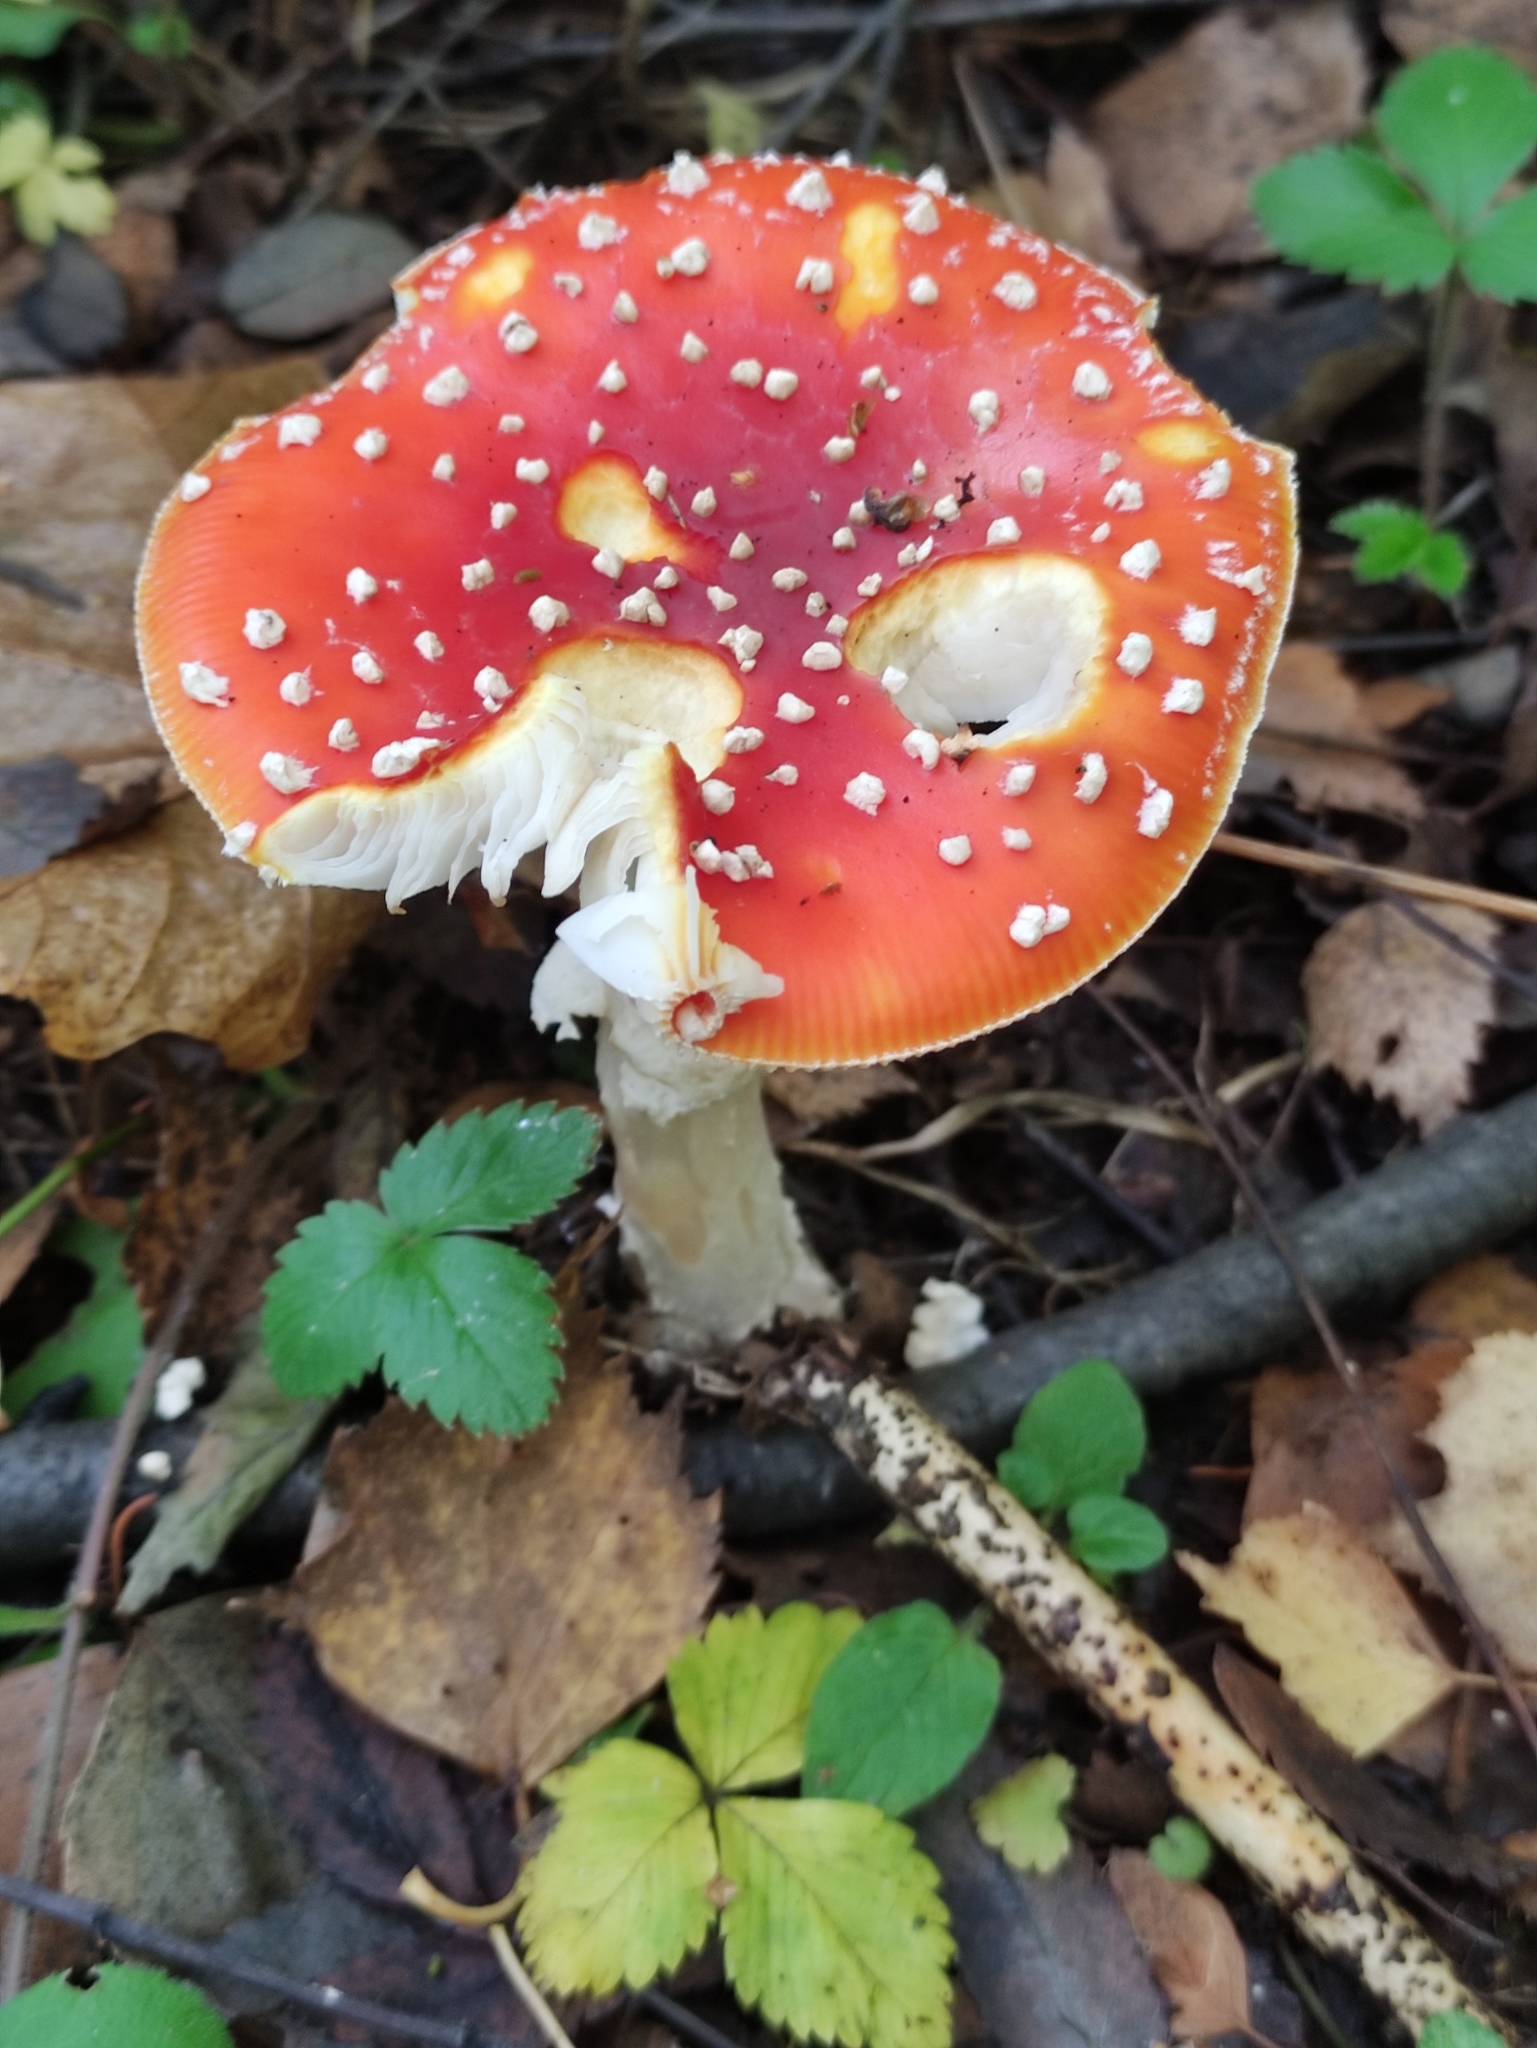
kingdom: Fungi
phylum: Basidiomycota
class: Agaricomycetes
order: Agaricales
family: Amanitaceae
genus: Amanita
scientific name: Amanita muscaria
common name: Fly agaric
